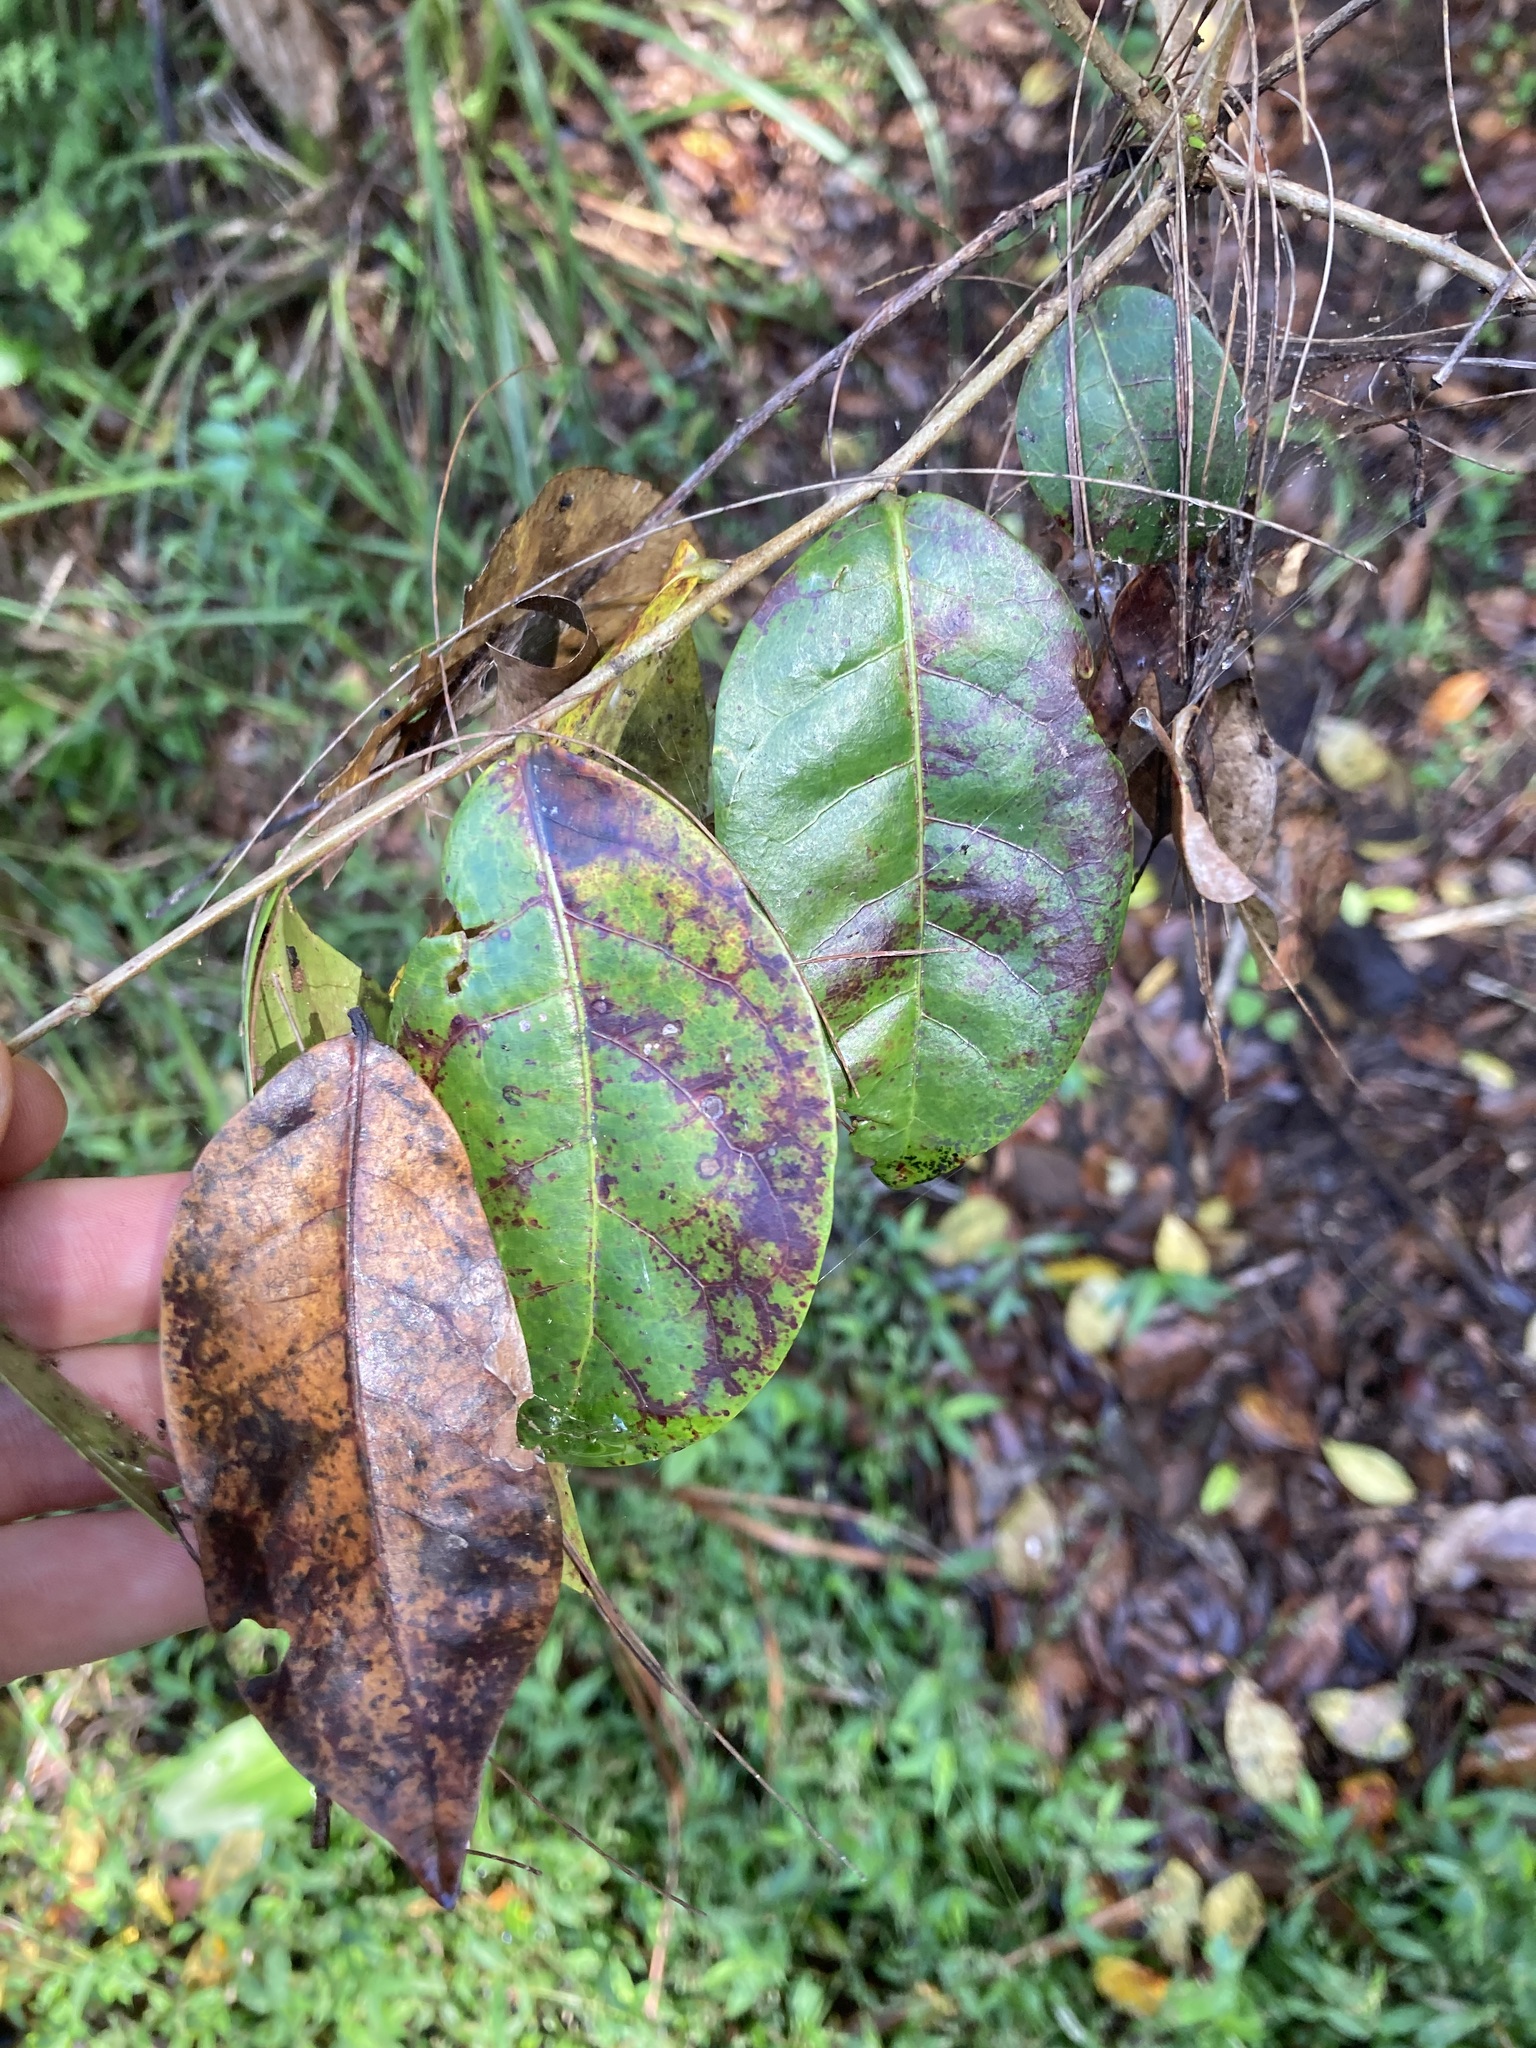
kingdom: Plantae
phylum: Tracheophyta
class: Magnoliopsida
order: Malpighiales
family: Phyllanthaceae
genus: Glochidion
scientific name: Glochidion ferdinandi
